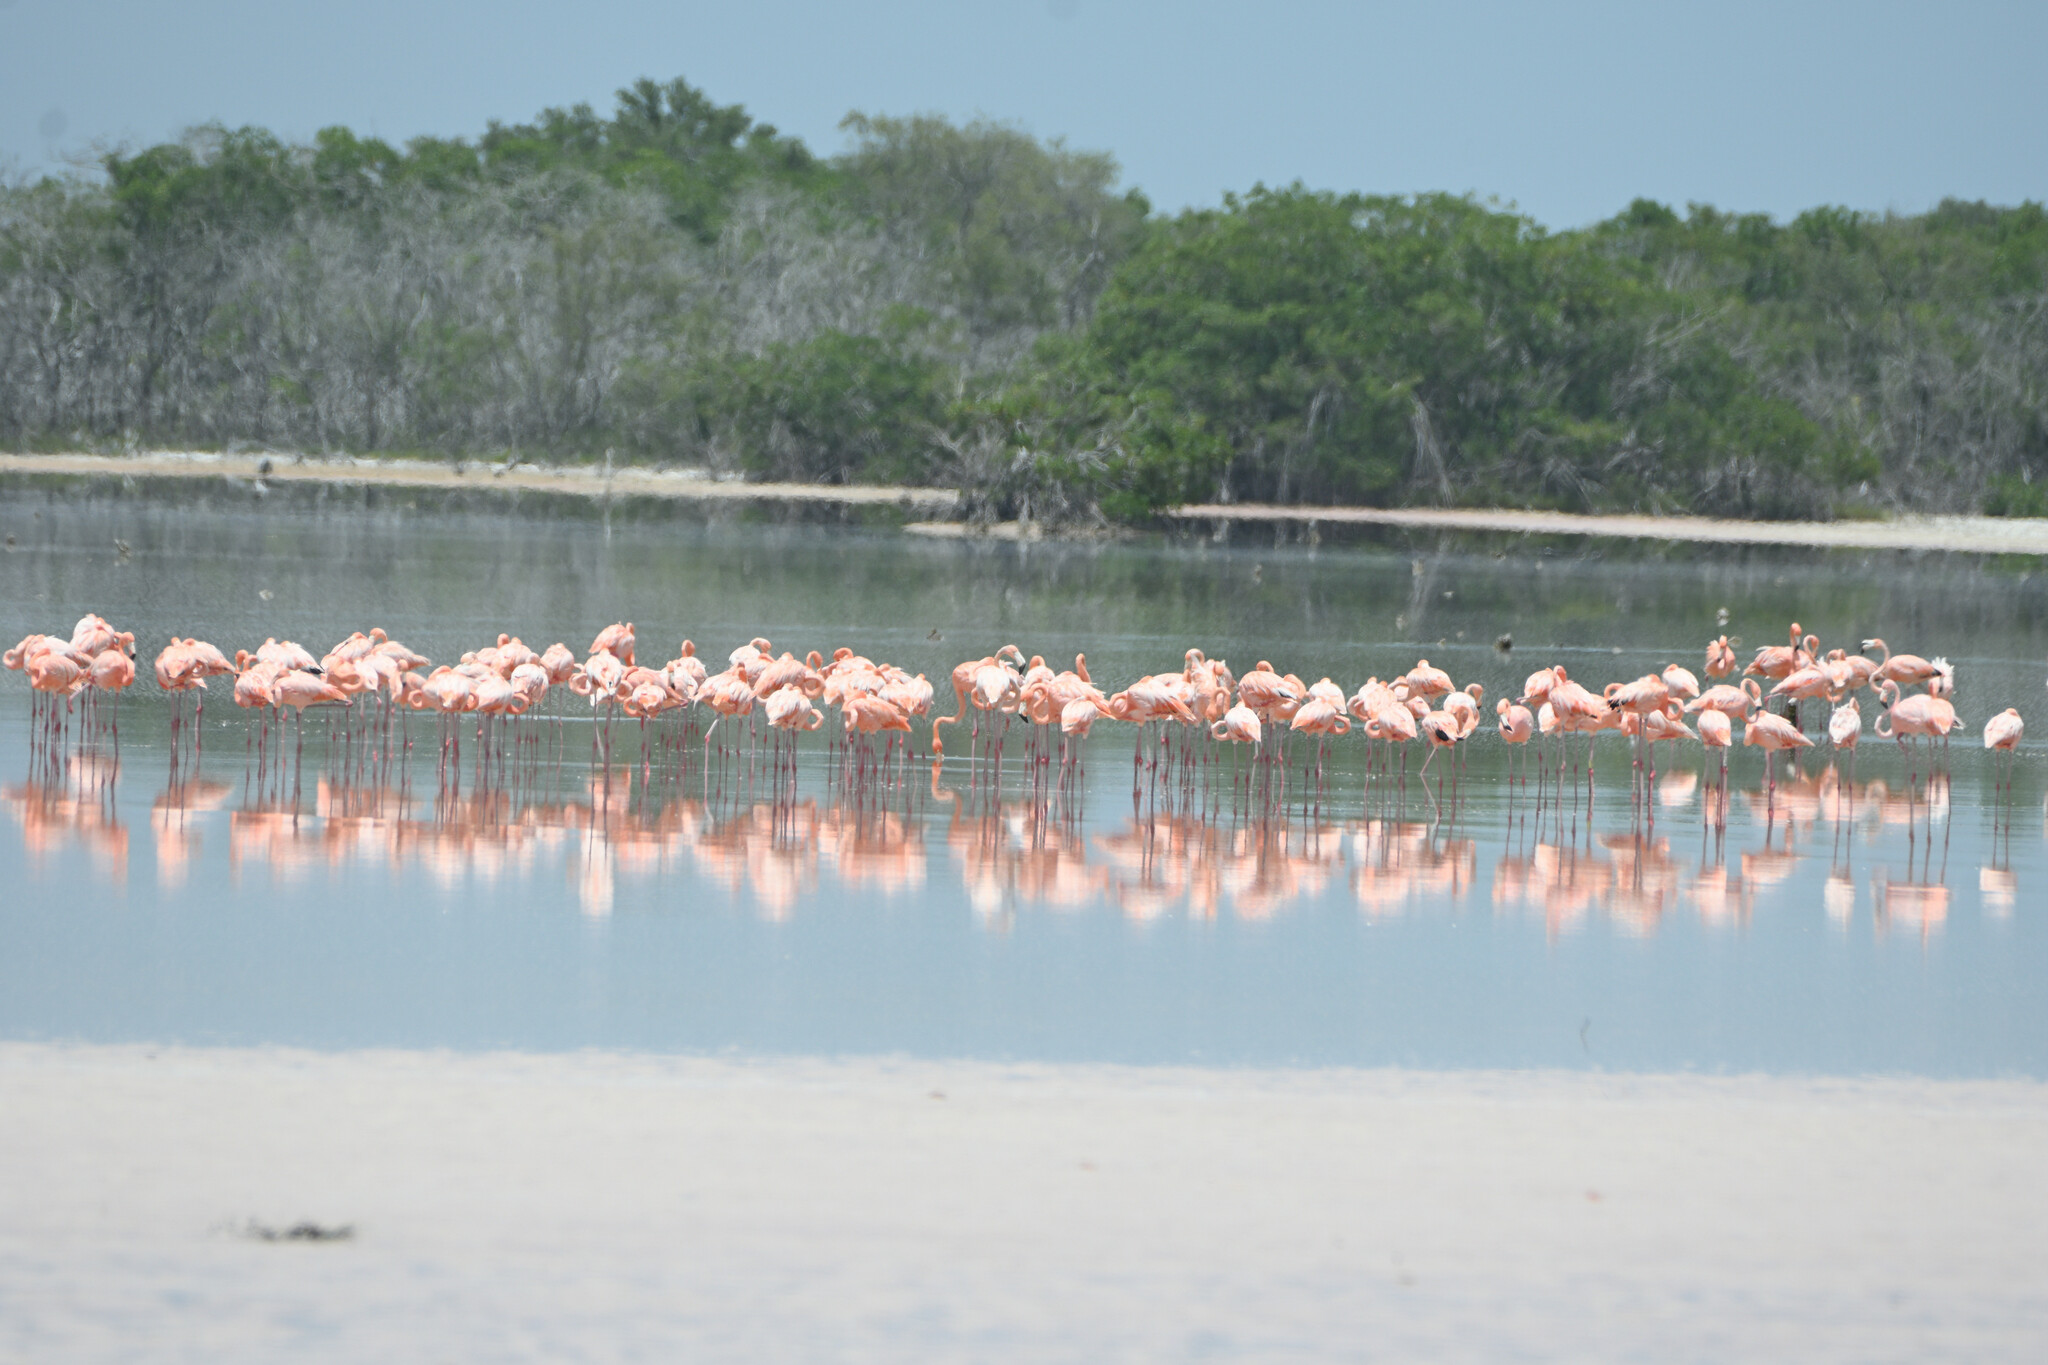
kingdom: Animalia
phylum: Chordata
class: Aves
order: Phoenicopteriformes
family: Phoenicopteridae
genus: Phoenicopterus
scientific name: Phoenicopterus ruber
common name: American flamingo
